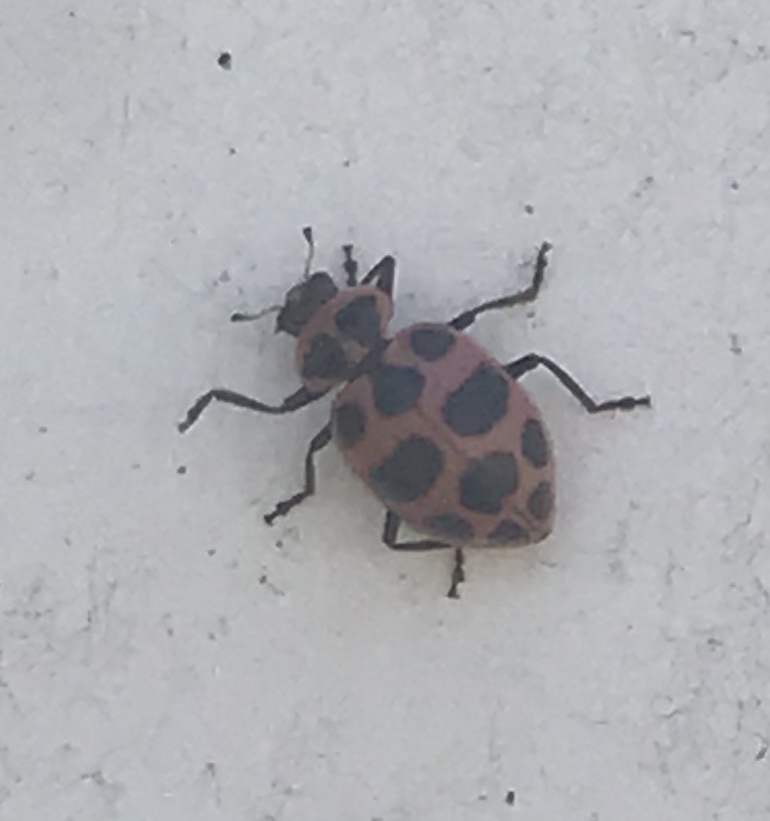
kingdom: Animalia
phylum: Arthropoda
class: Insecta
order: Coleoptera
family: Coccinellidae
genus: Coleomegilla
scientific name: Coleomegilla maculata
